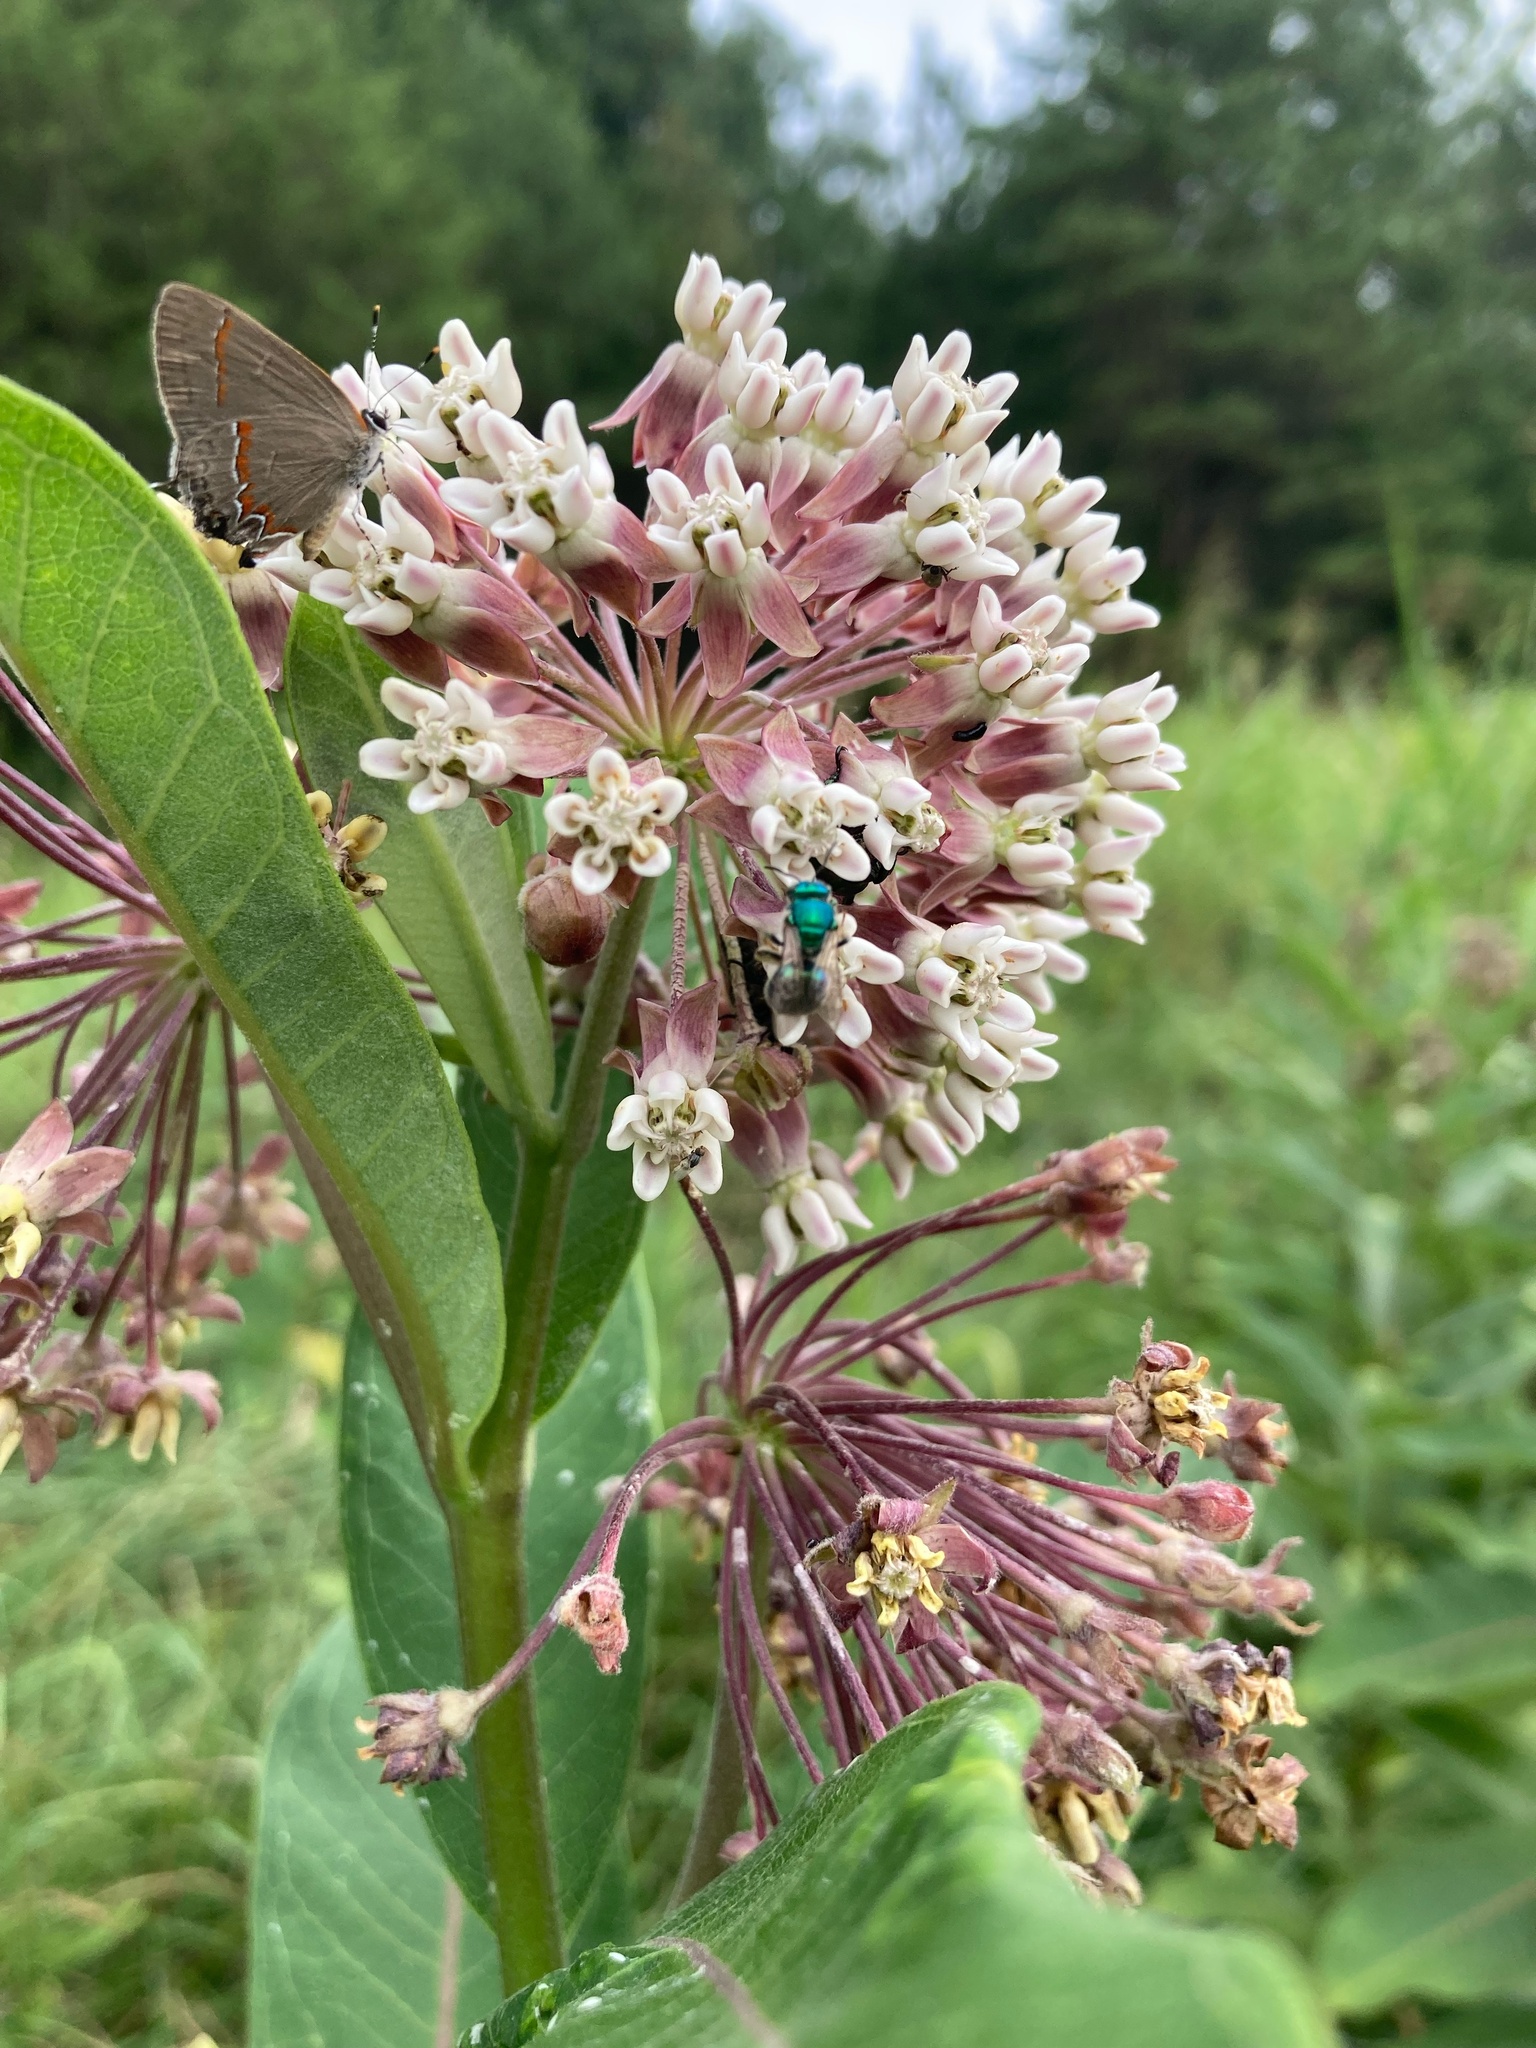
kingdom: Plantae
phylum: Tracheophyta
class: Magnoliopsida
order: Gentianales
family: Apocynaceae
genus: Asclepias
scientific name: Asclepias syriaca
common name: Common milkweed
